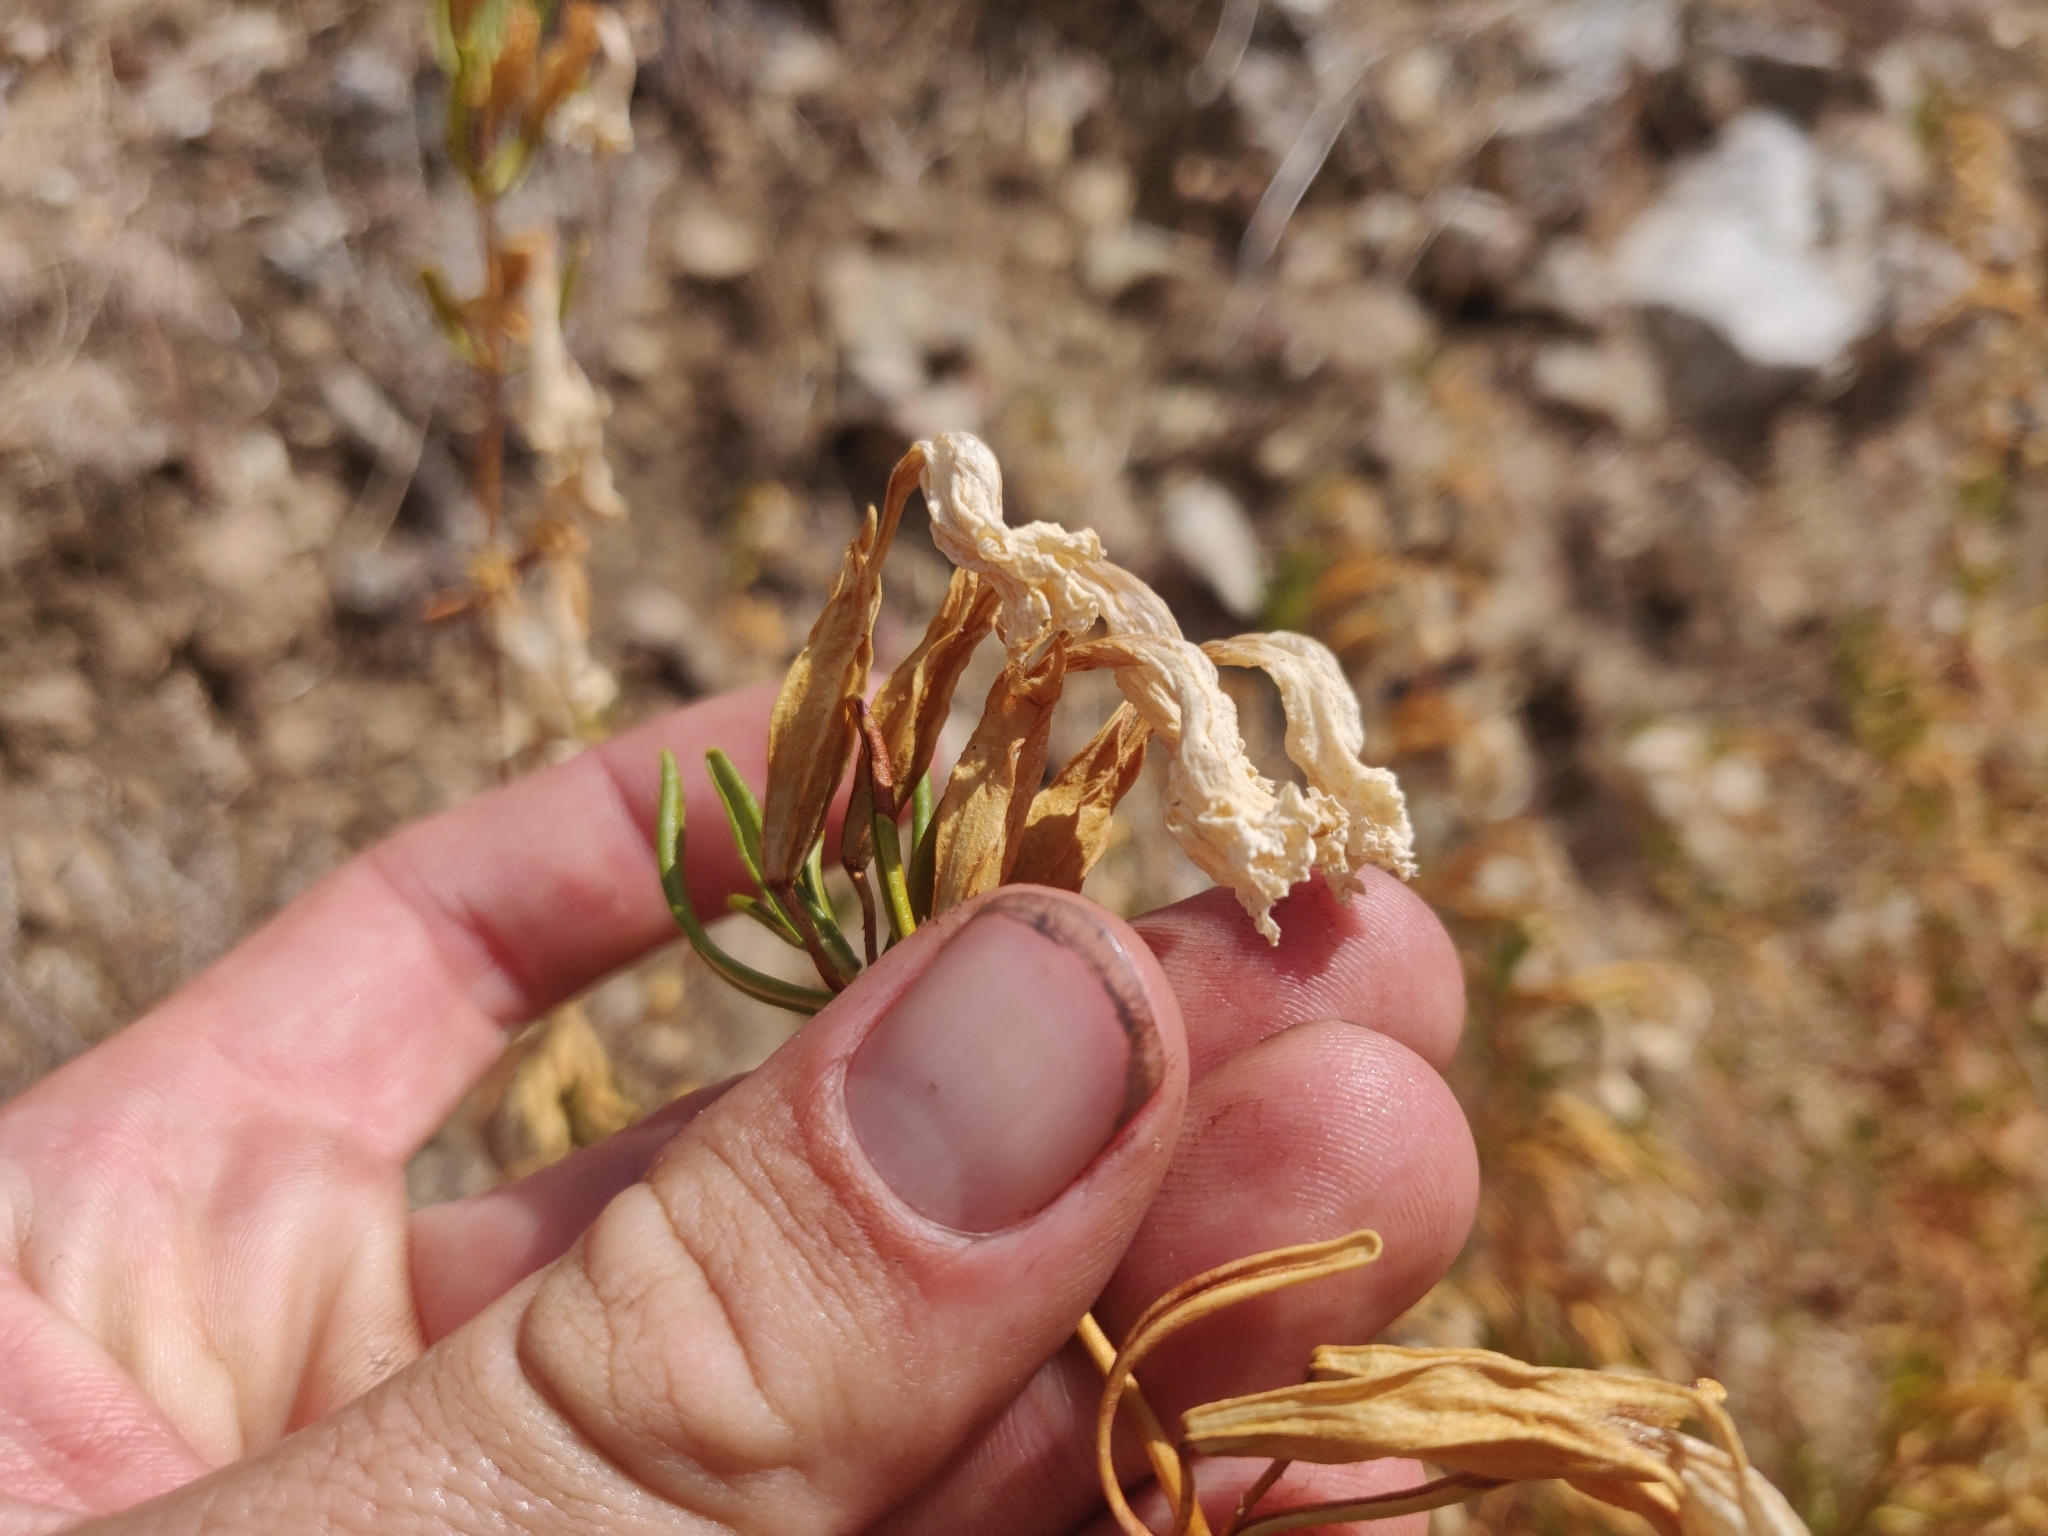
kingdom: Plantae
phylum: Tracheophyta
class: Magnoliopsida
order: Lamiales
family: Phrymaceae
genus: Diplacus
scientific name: Diplacus linearis
